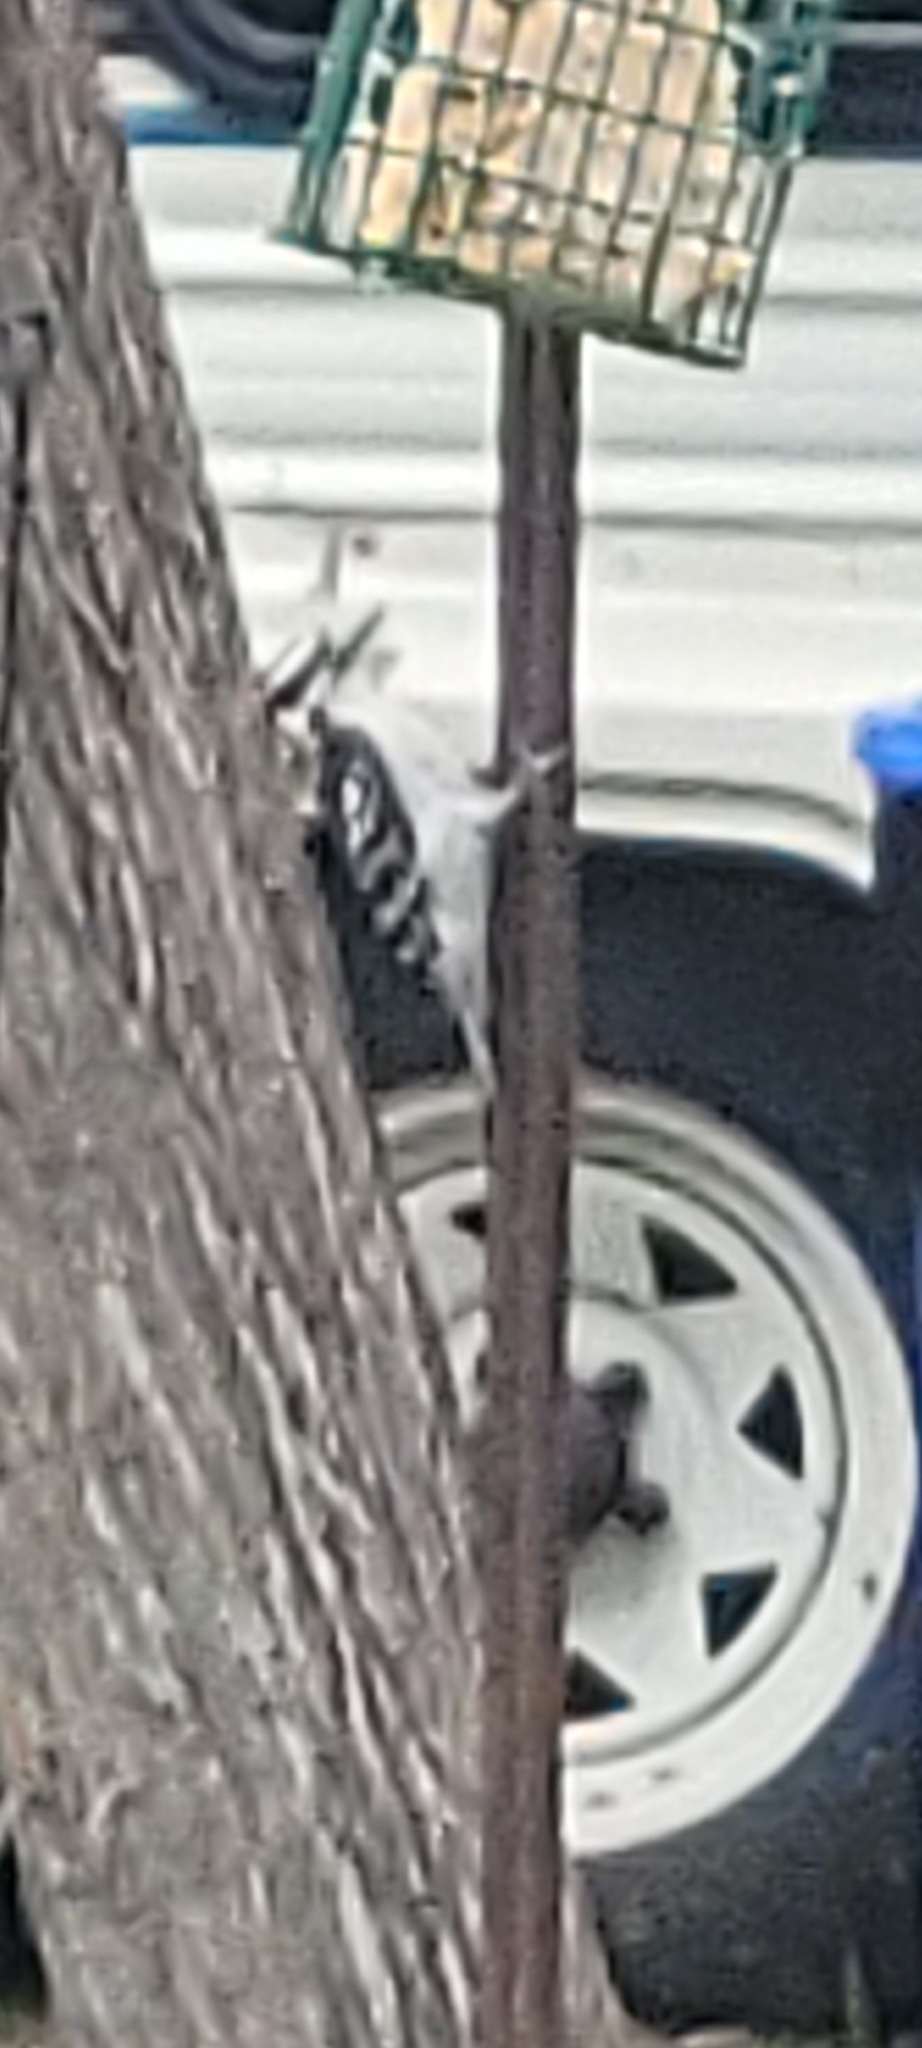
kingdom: Animalia
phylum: Chordata
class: Aves
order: Piciformes
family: Picidae
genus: Dryobates
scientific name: Dryobates pubescens
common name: Downy woodpecker
